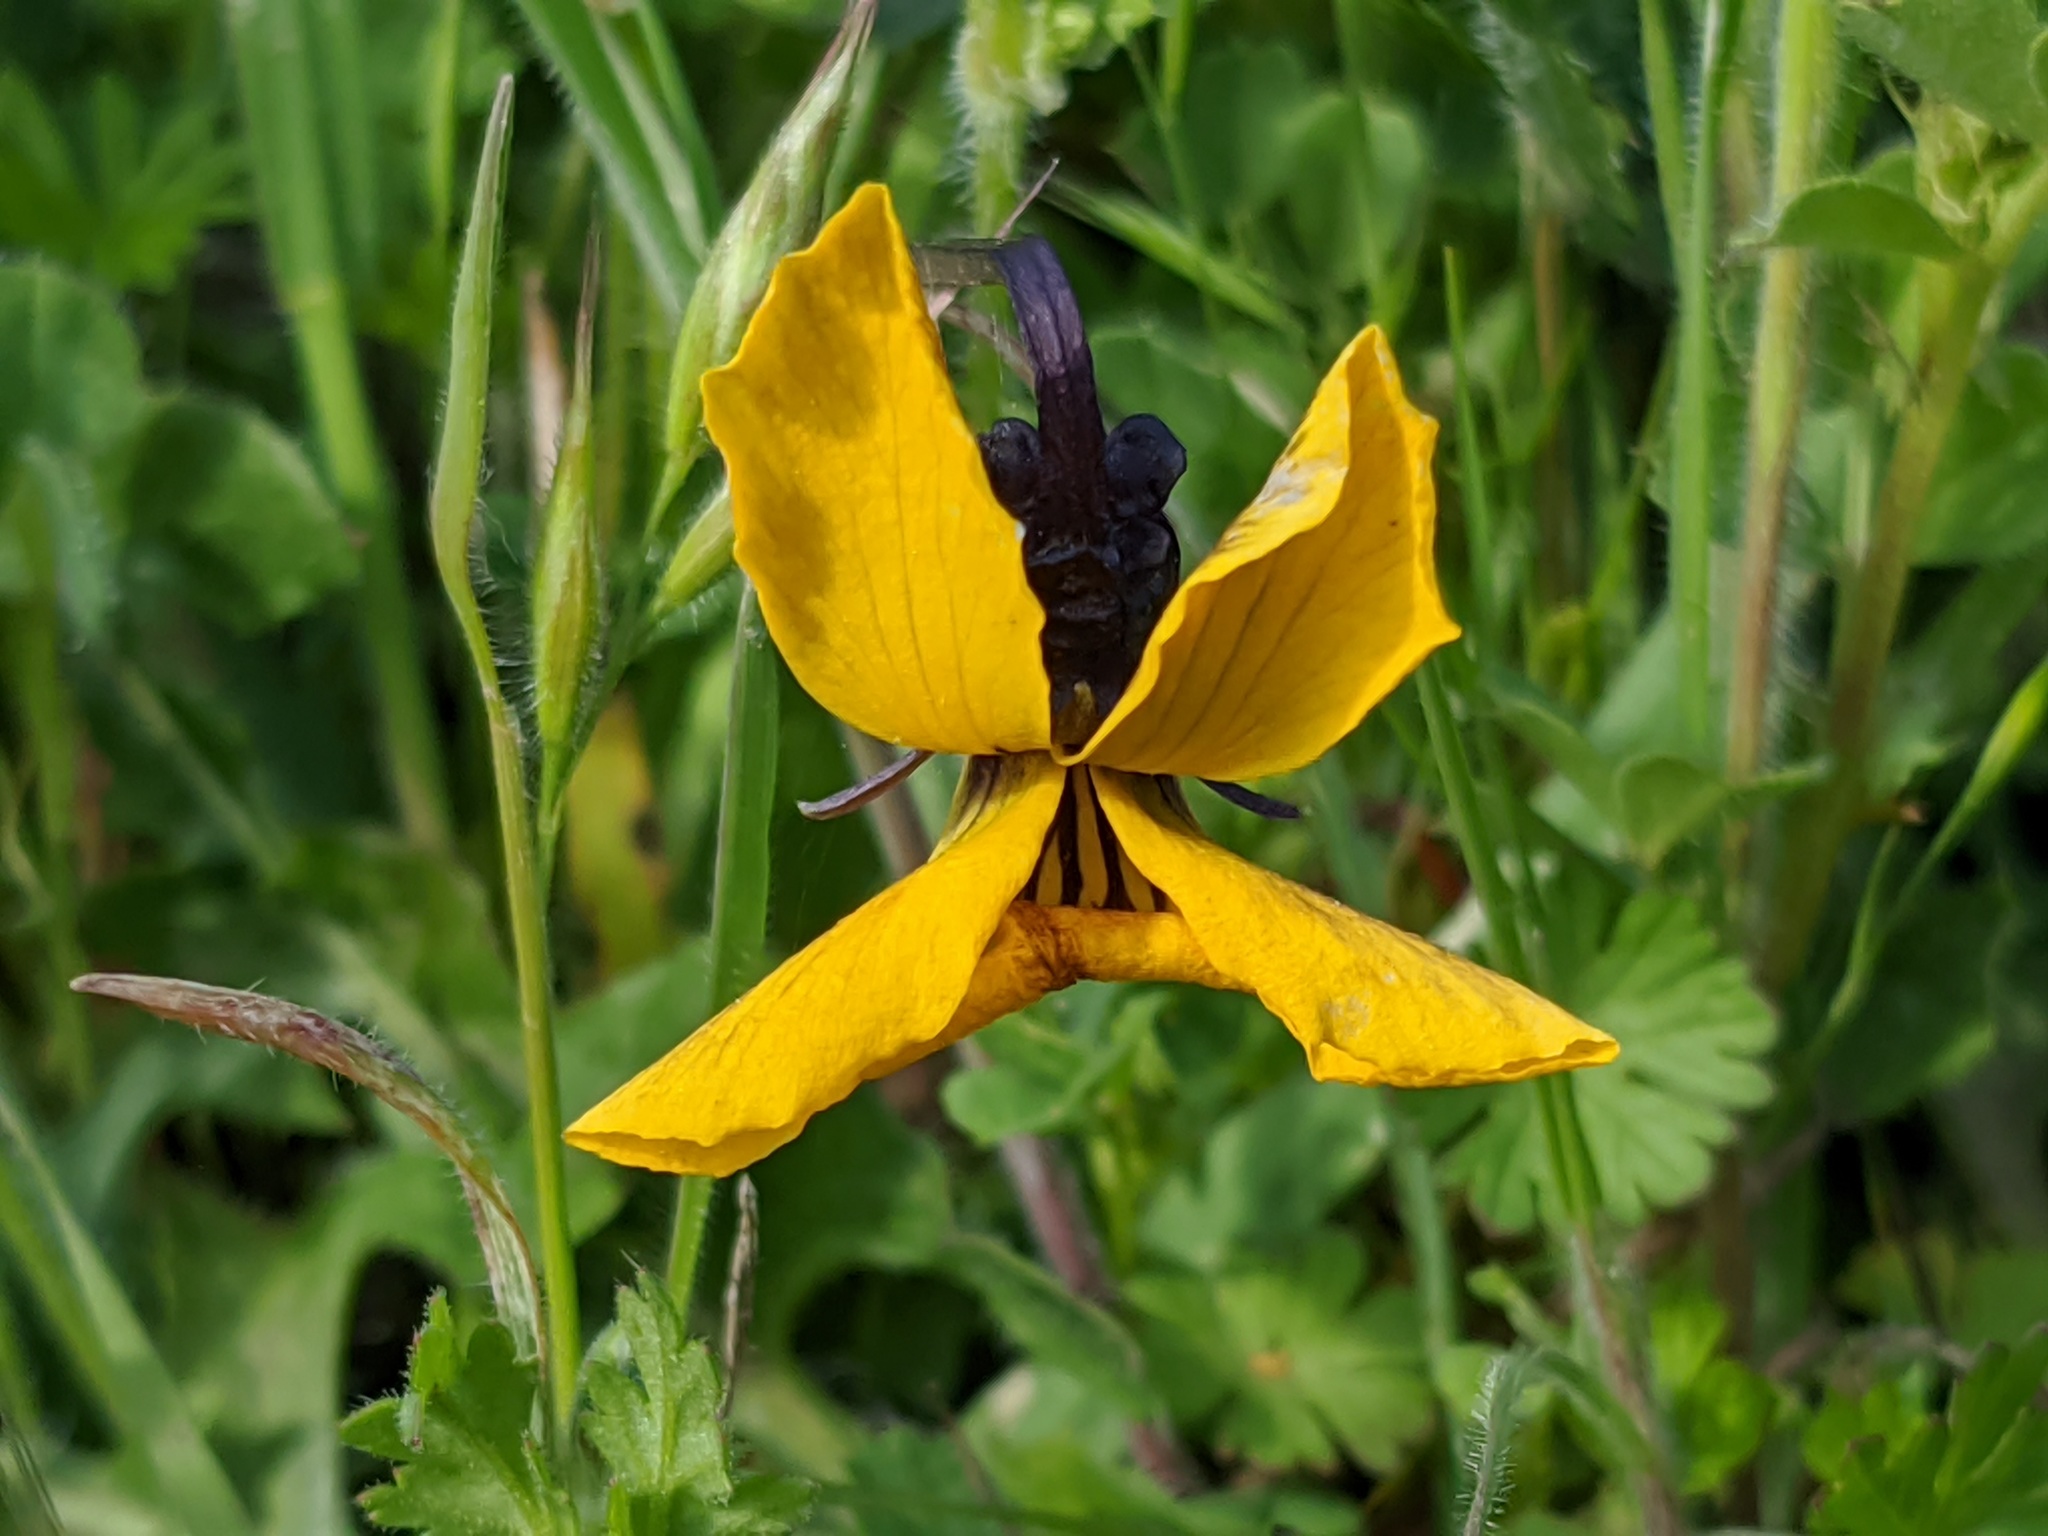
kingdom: Plantae
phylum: Tracheophyta
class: Magnoliopsida
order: Malpighiales
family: Violaceae
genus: Viola
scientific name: Viola pedunculata
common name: California golden violet
